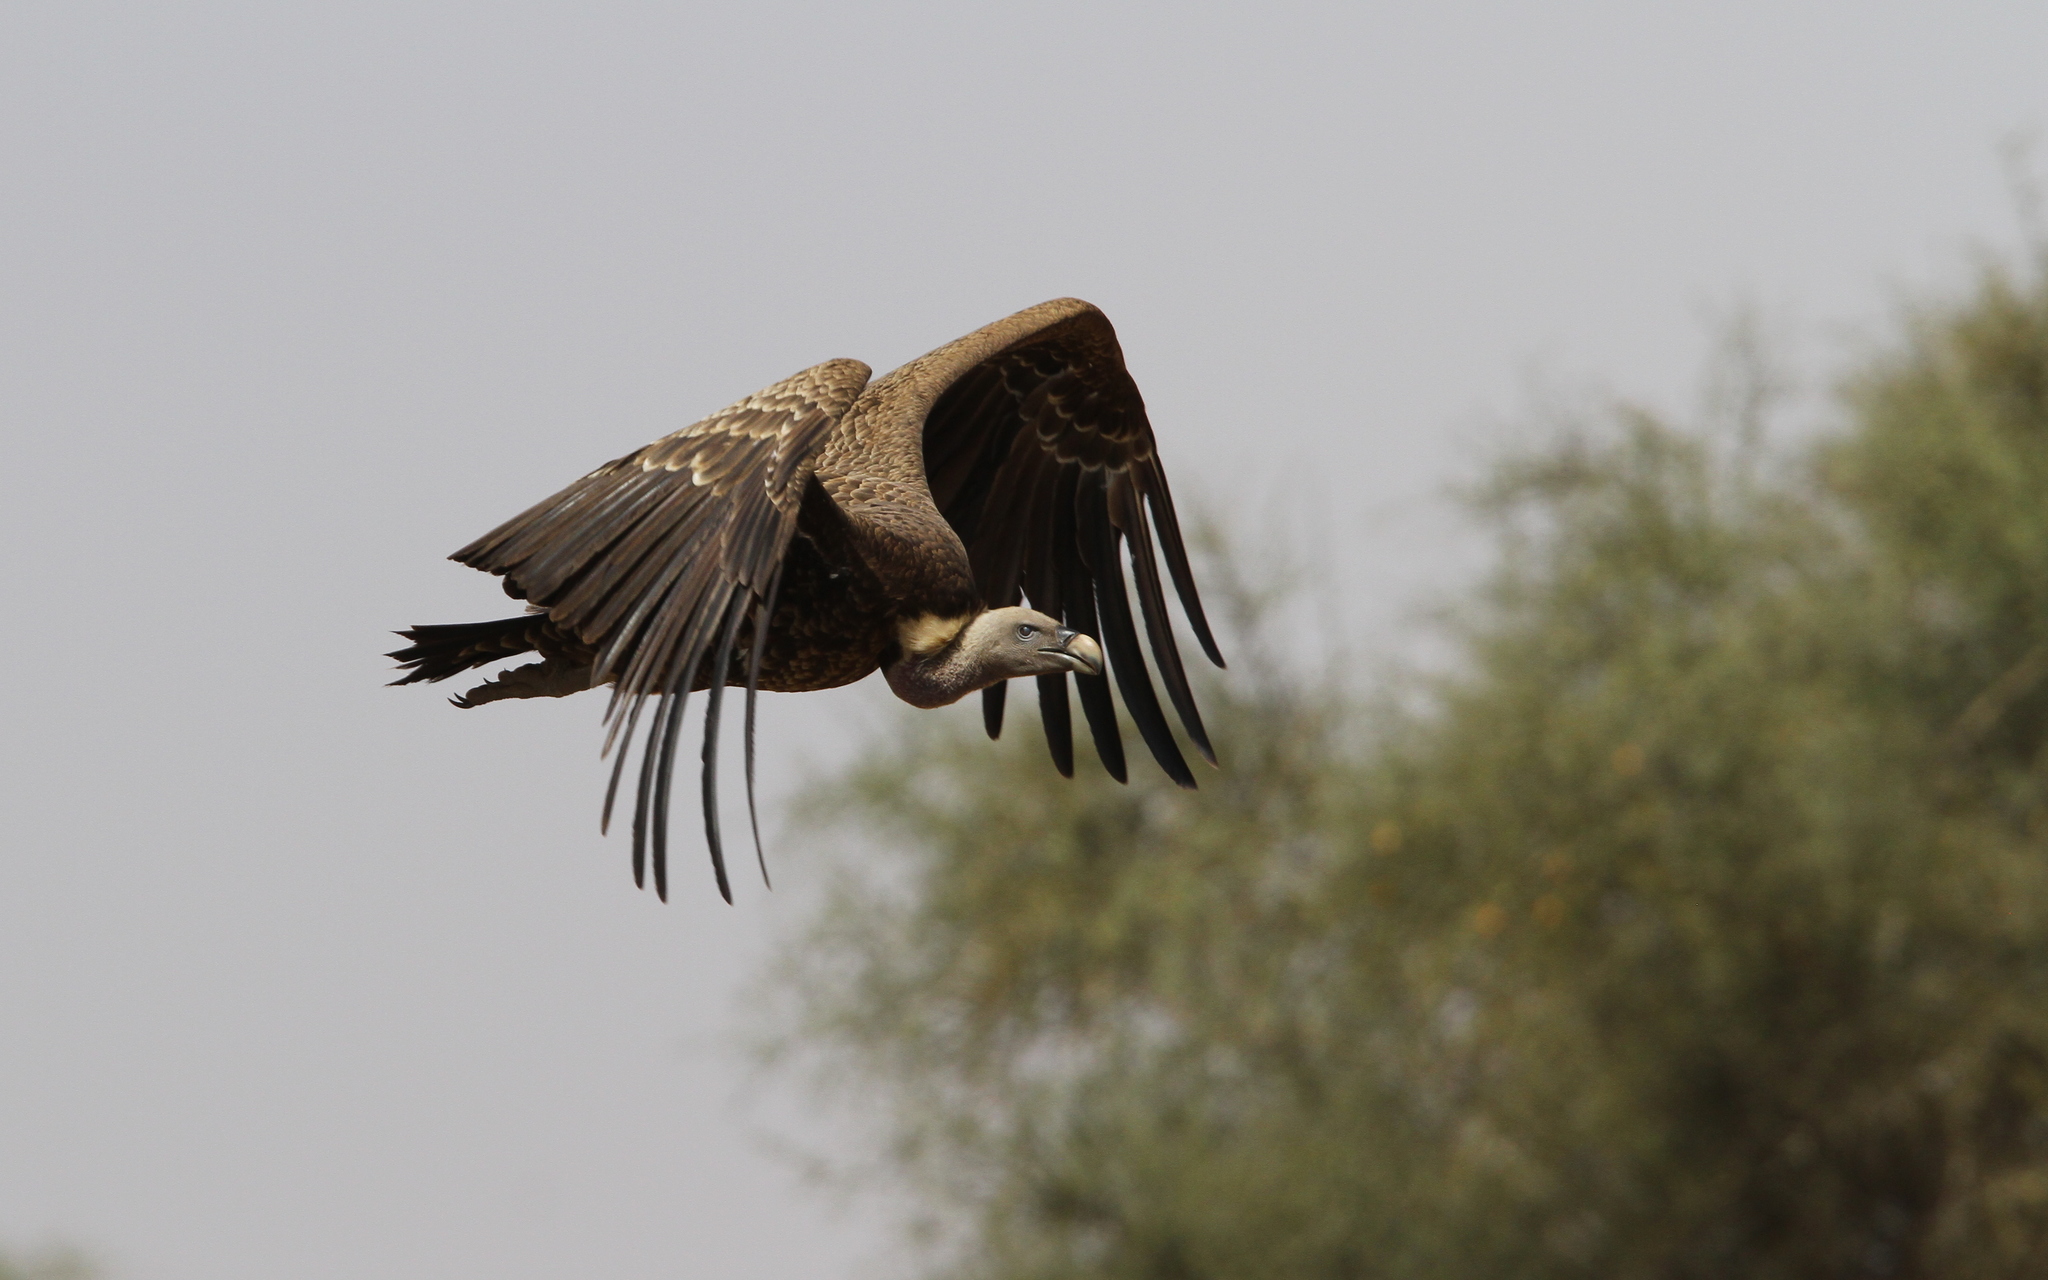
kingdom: Animalia
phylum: Chordata
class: Aves
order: Accipitriformes
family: Accipitridae
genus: Gyps
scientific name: Gyps rueppellii
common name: Rüppell's vulture
